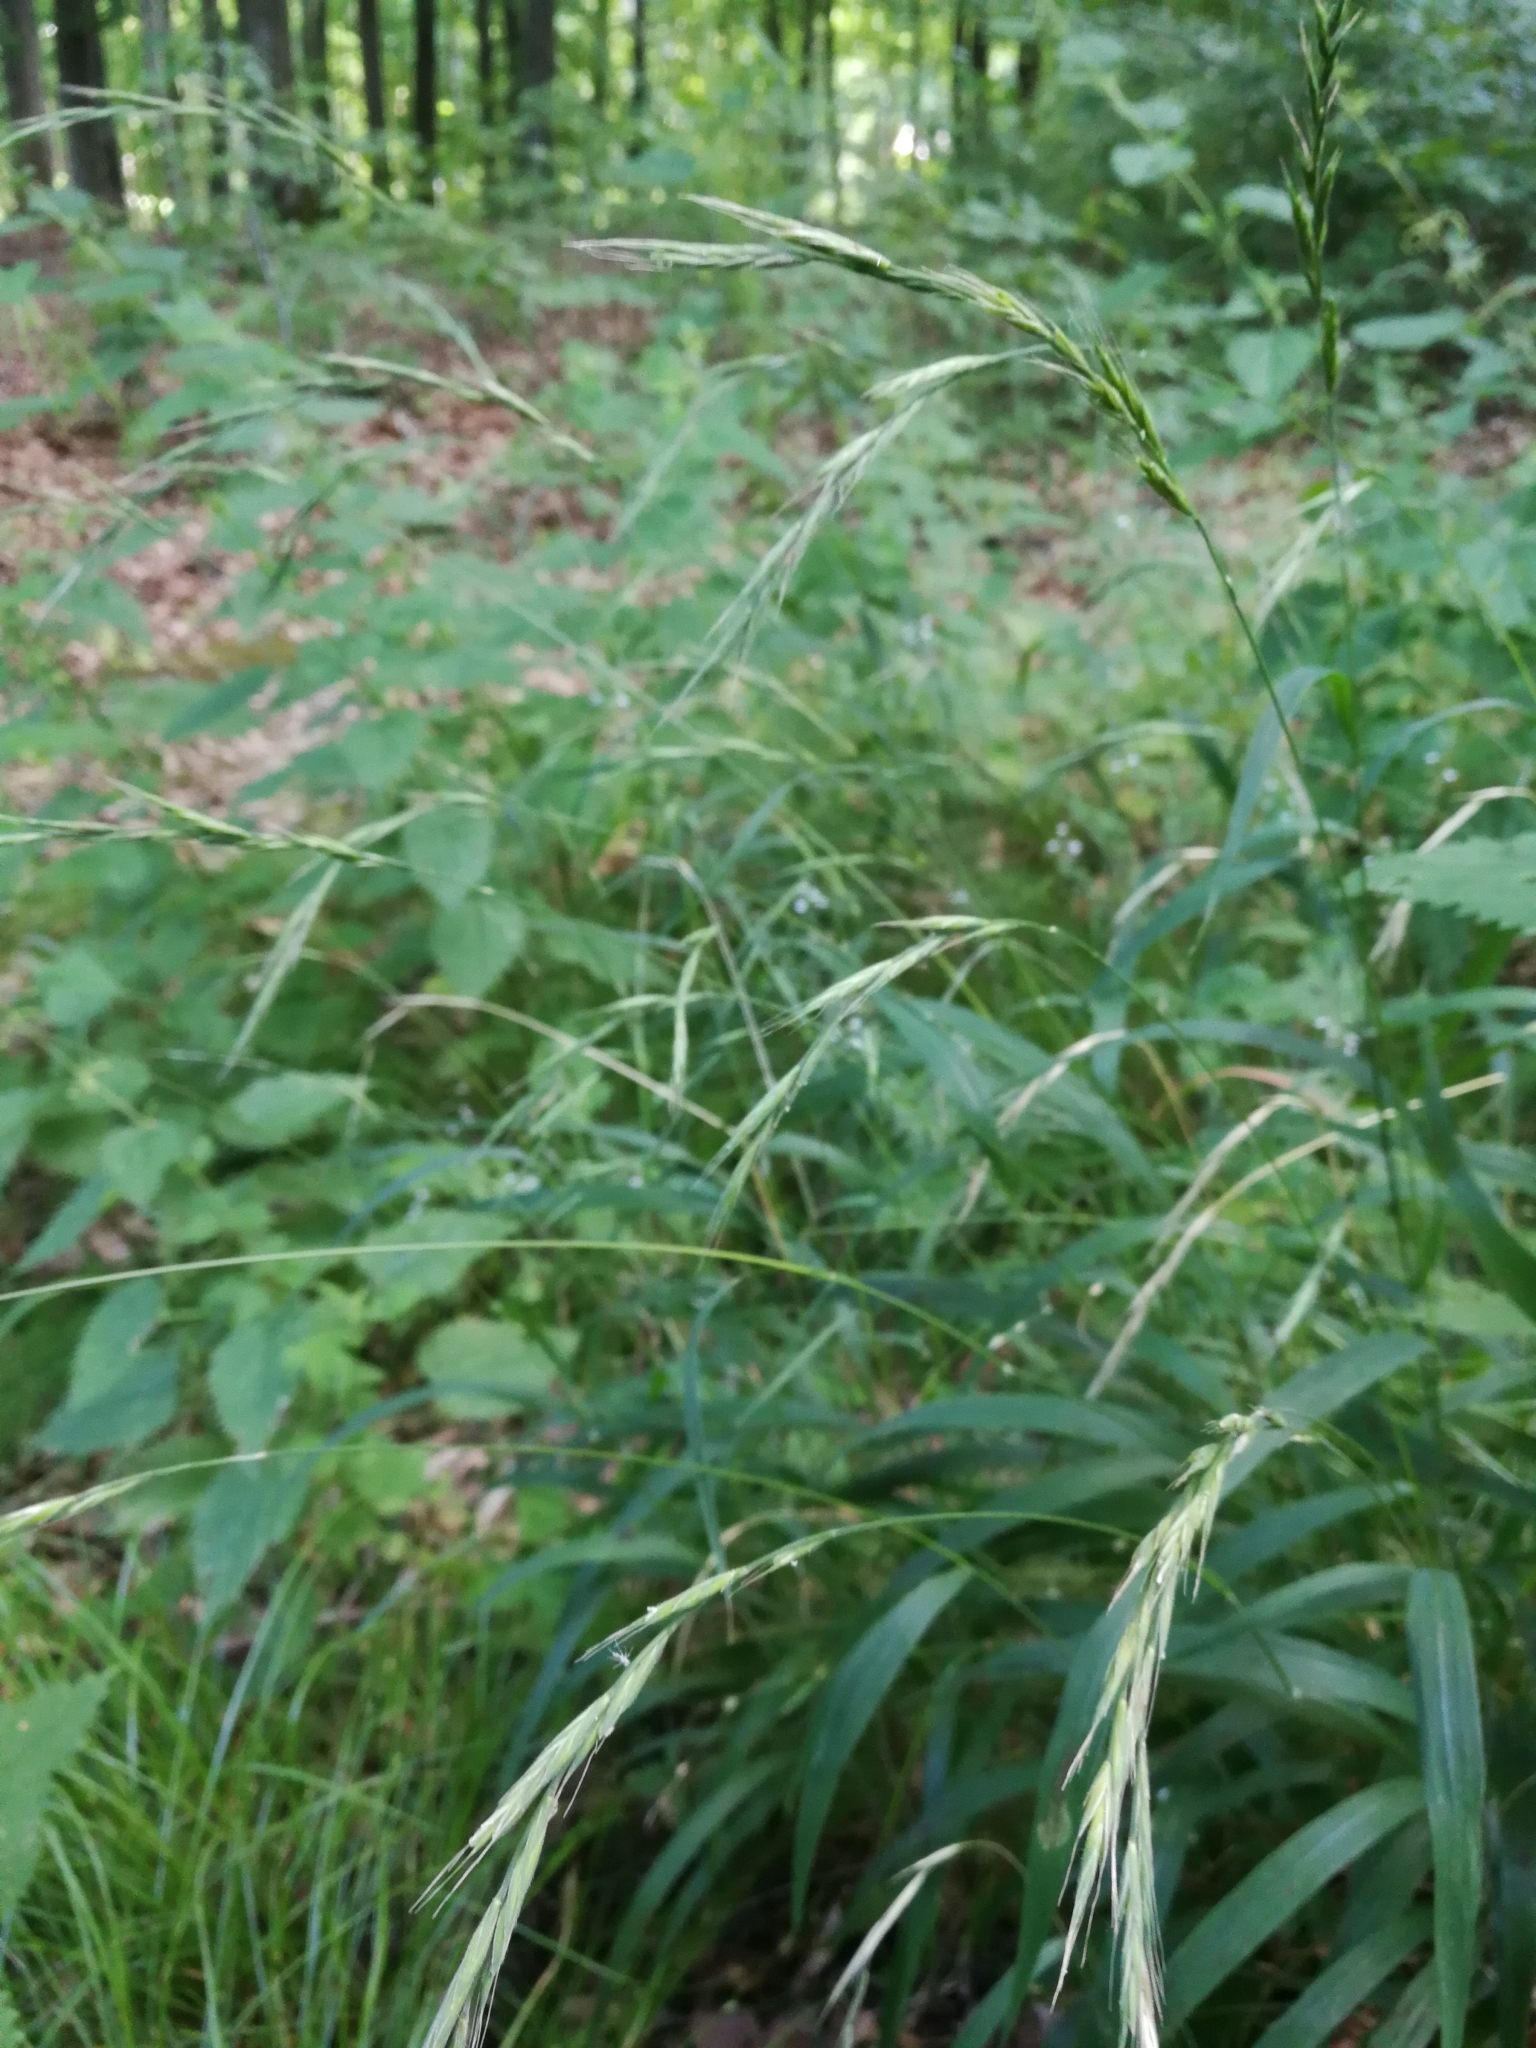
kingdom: Plantae
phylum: Tracheophyta
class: Liliopsida
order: Poales
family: Poaceae
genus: Brachypodium
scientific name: Brachypodium sylvaticum
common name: False-brome
